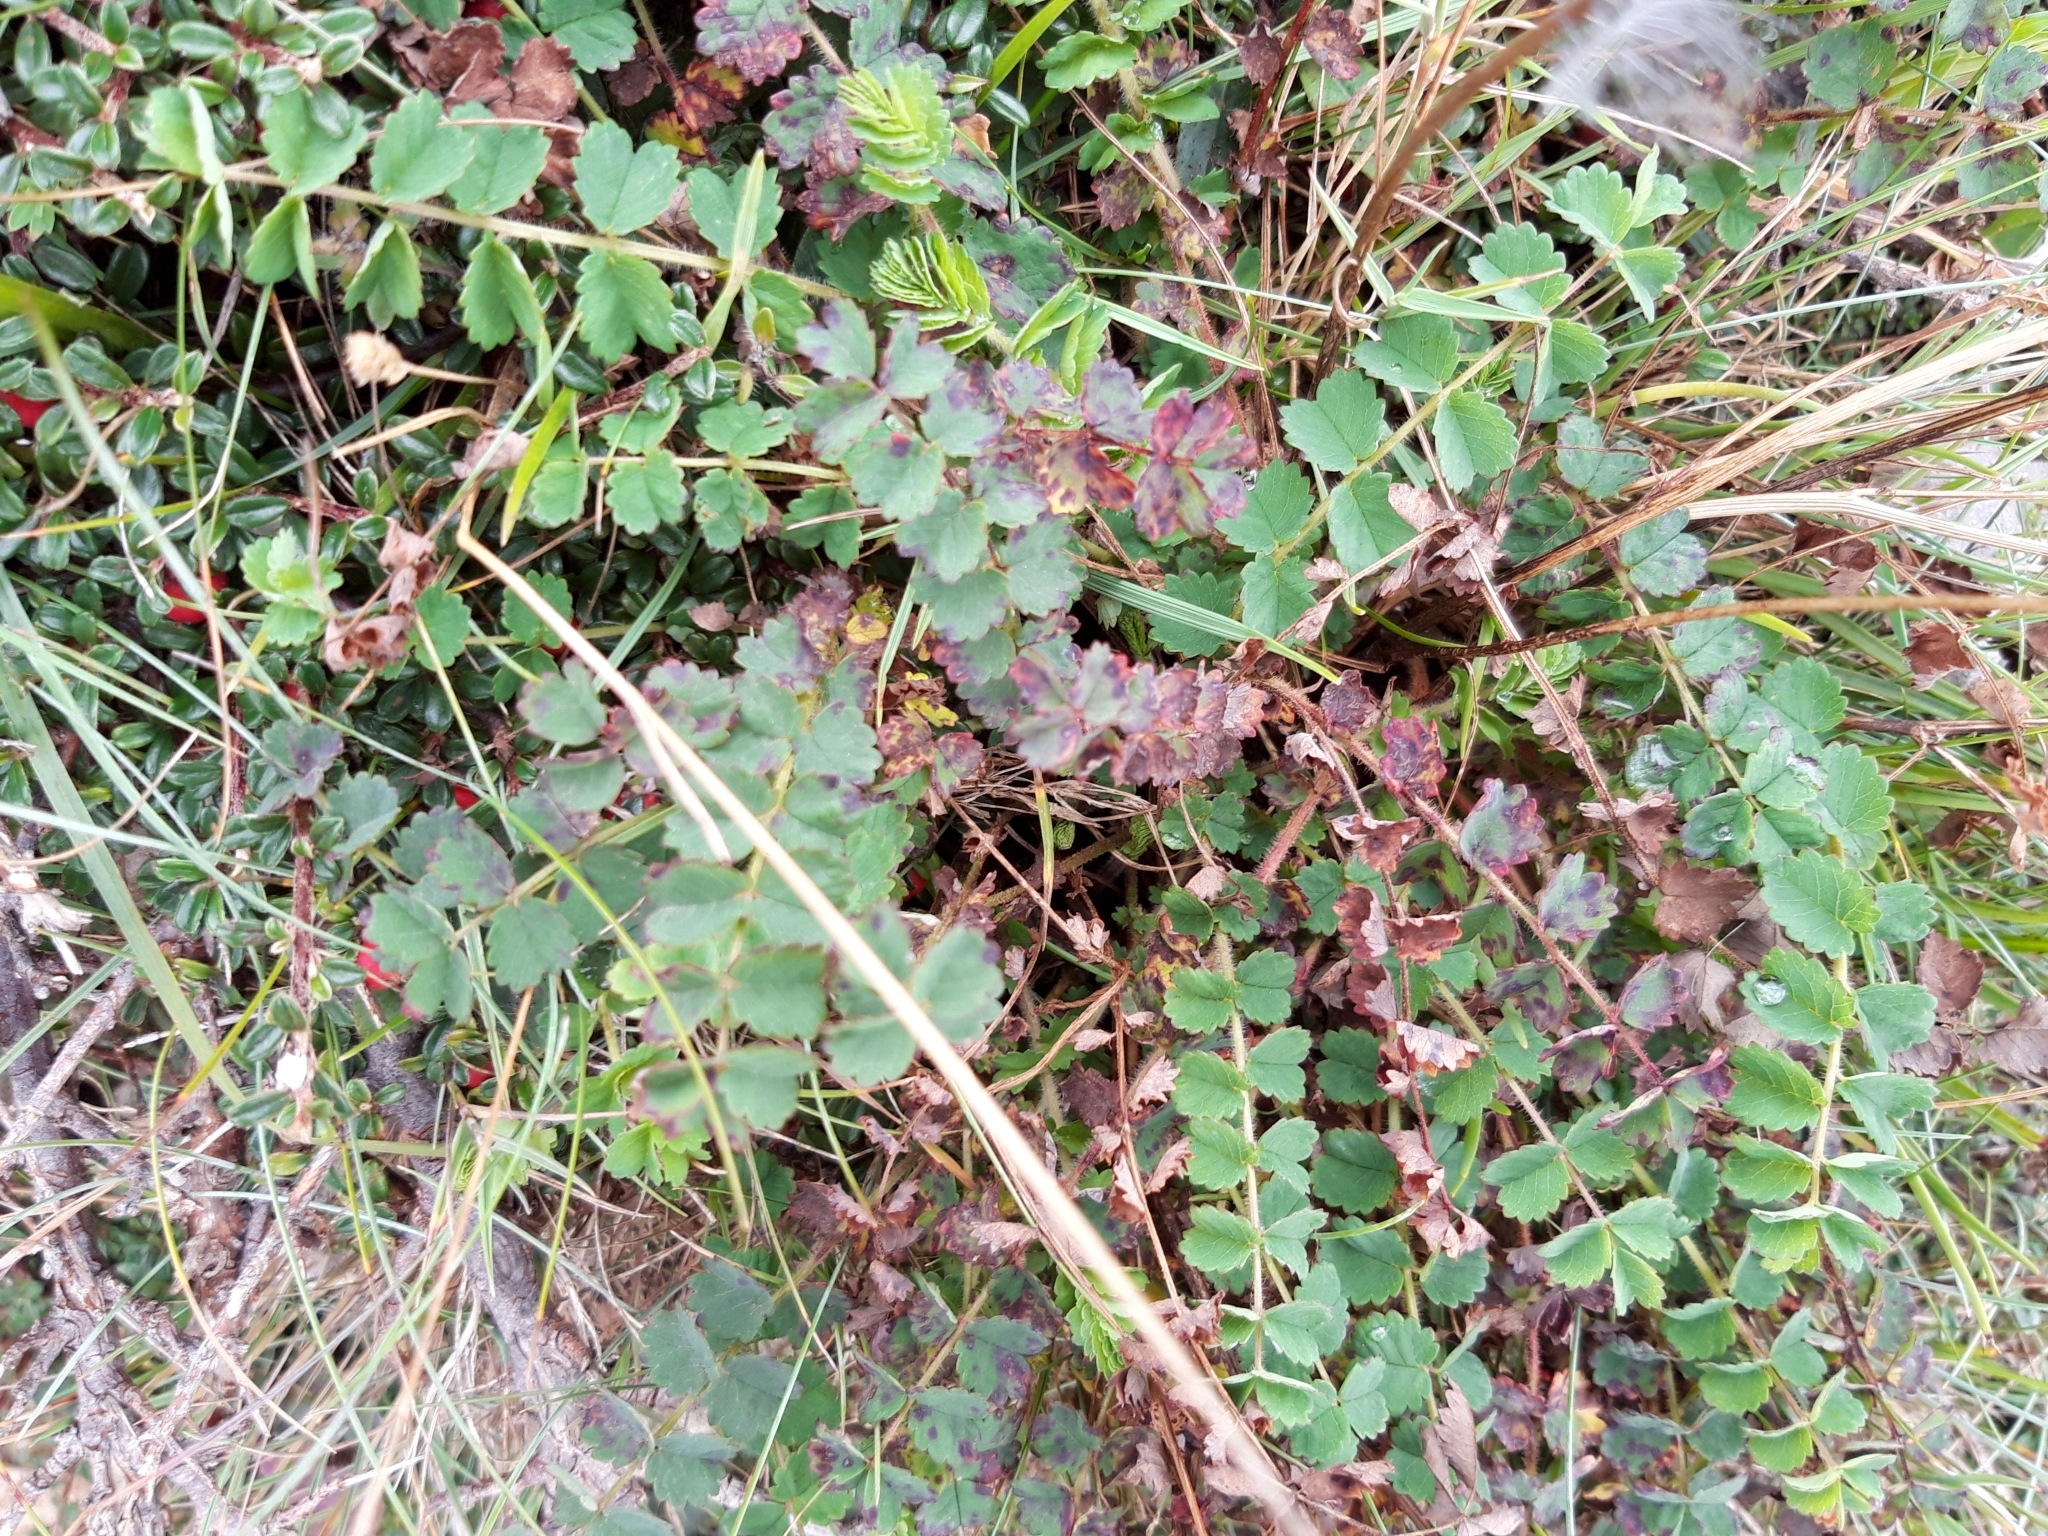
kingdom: Plantae
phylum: Tracheophyta
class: Magnoliopsida
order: Rosales
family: Rosaceae
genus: Poterium
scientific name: Poterium sanguisorba
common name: Salad burnet
